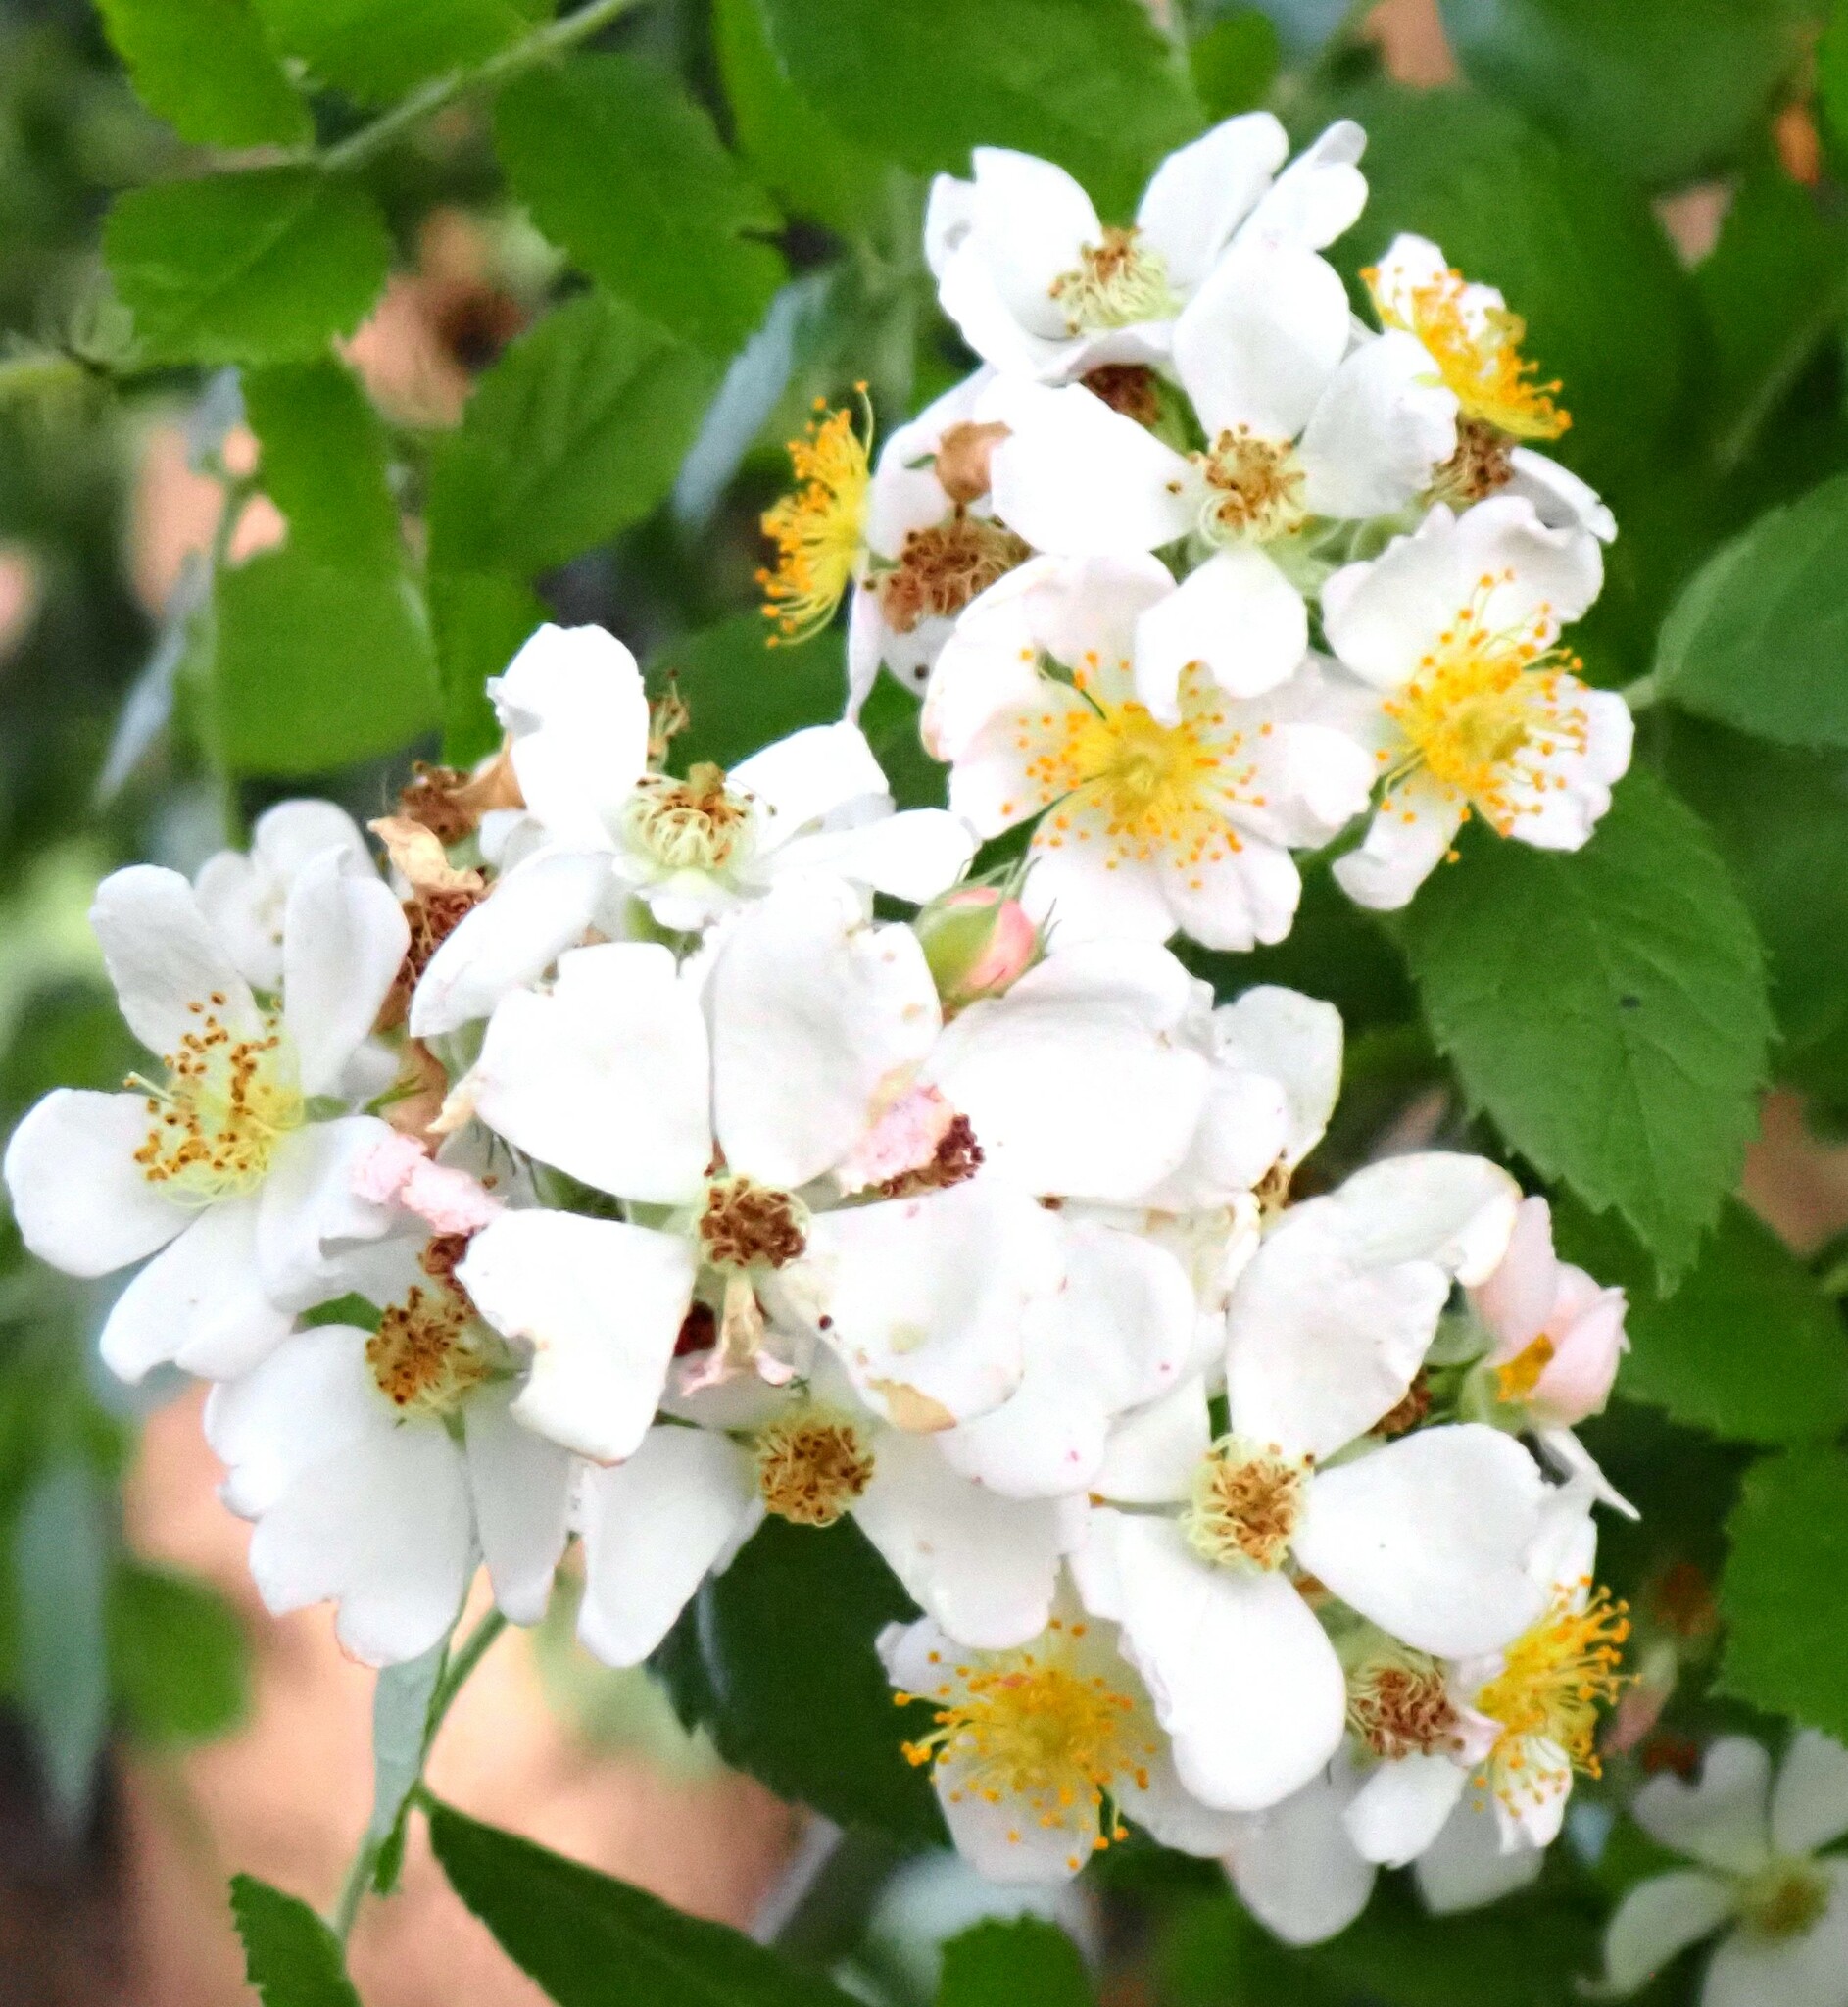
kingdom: Plantae
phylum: Tracheophyta
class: Magnoliopsida
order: Rosales
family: Rosaceae
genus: Rosa
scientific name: Rosa multiflora
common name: Multiflora rose
